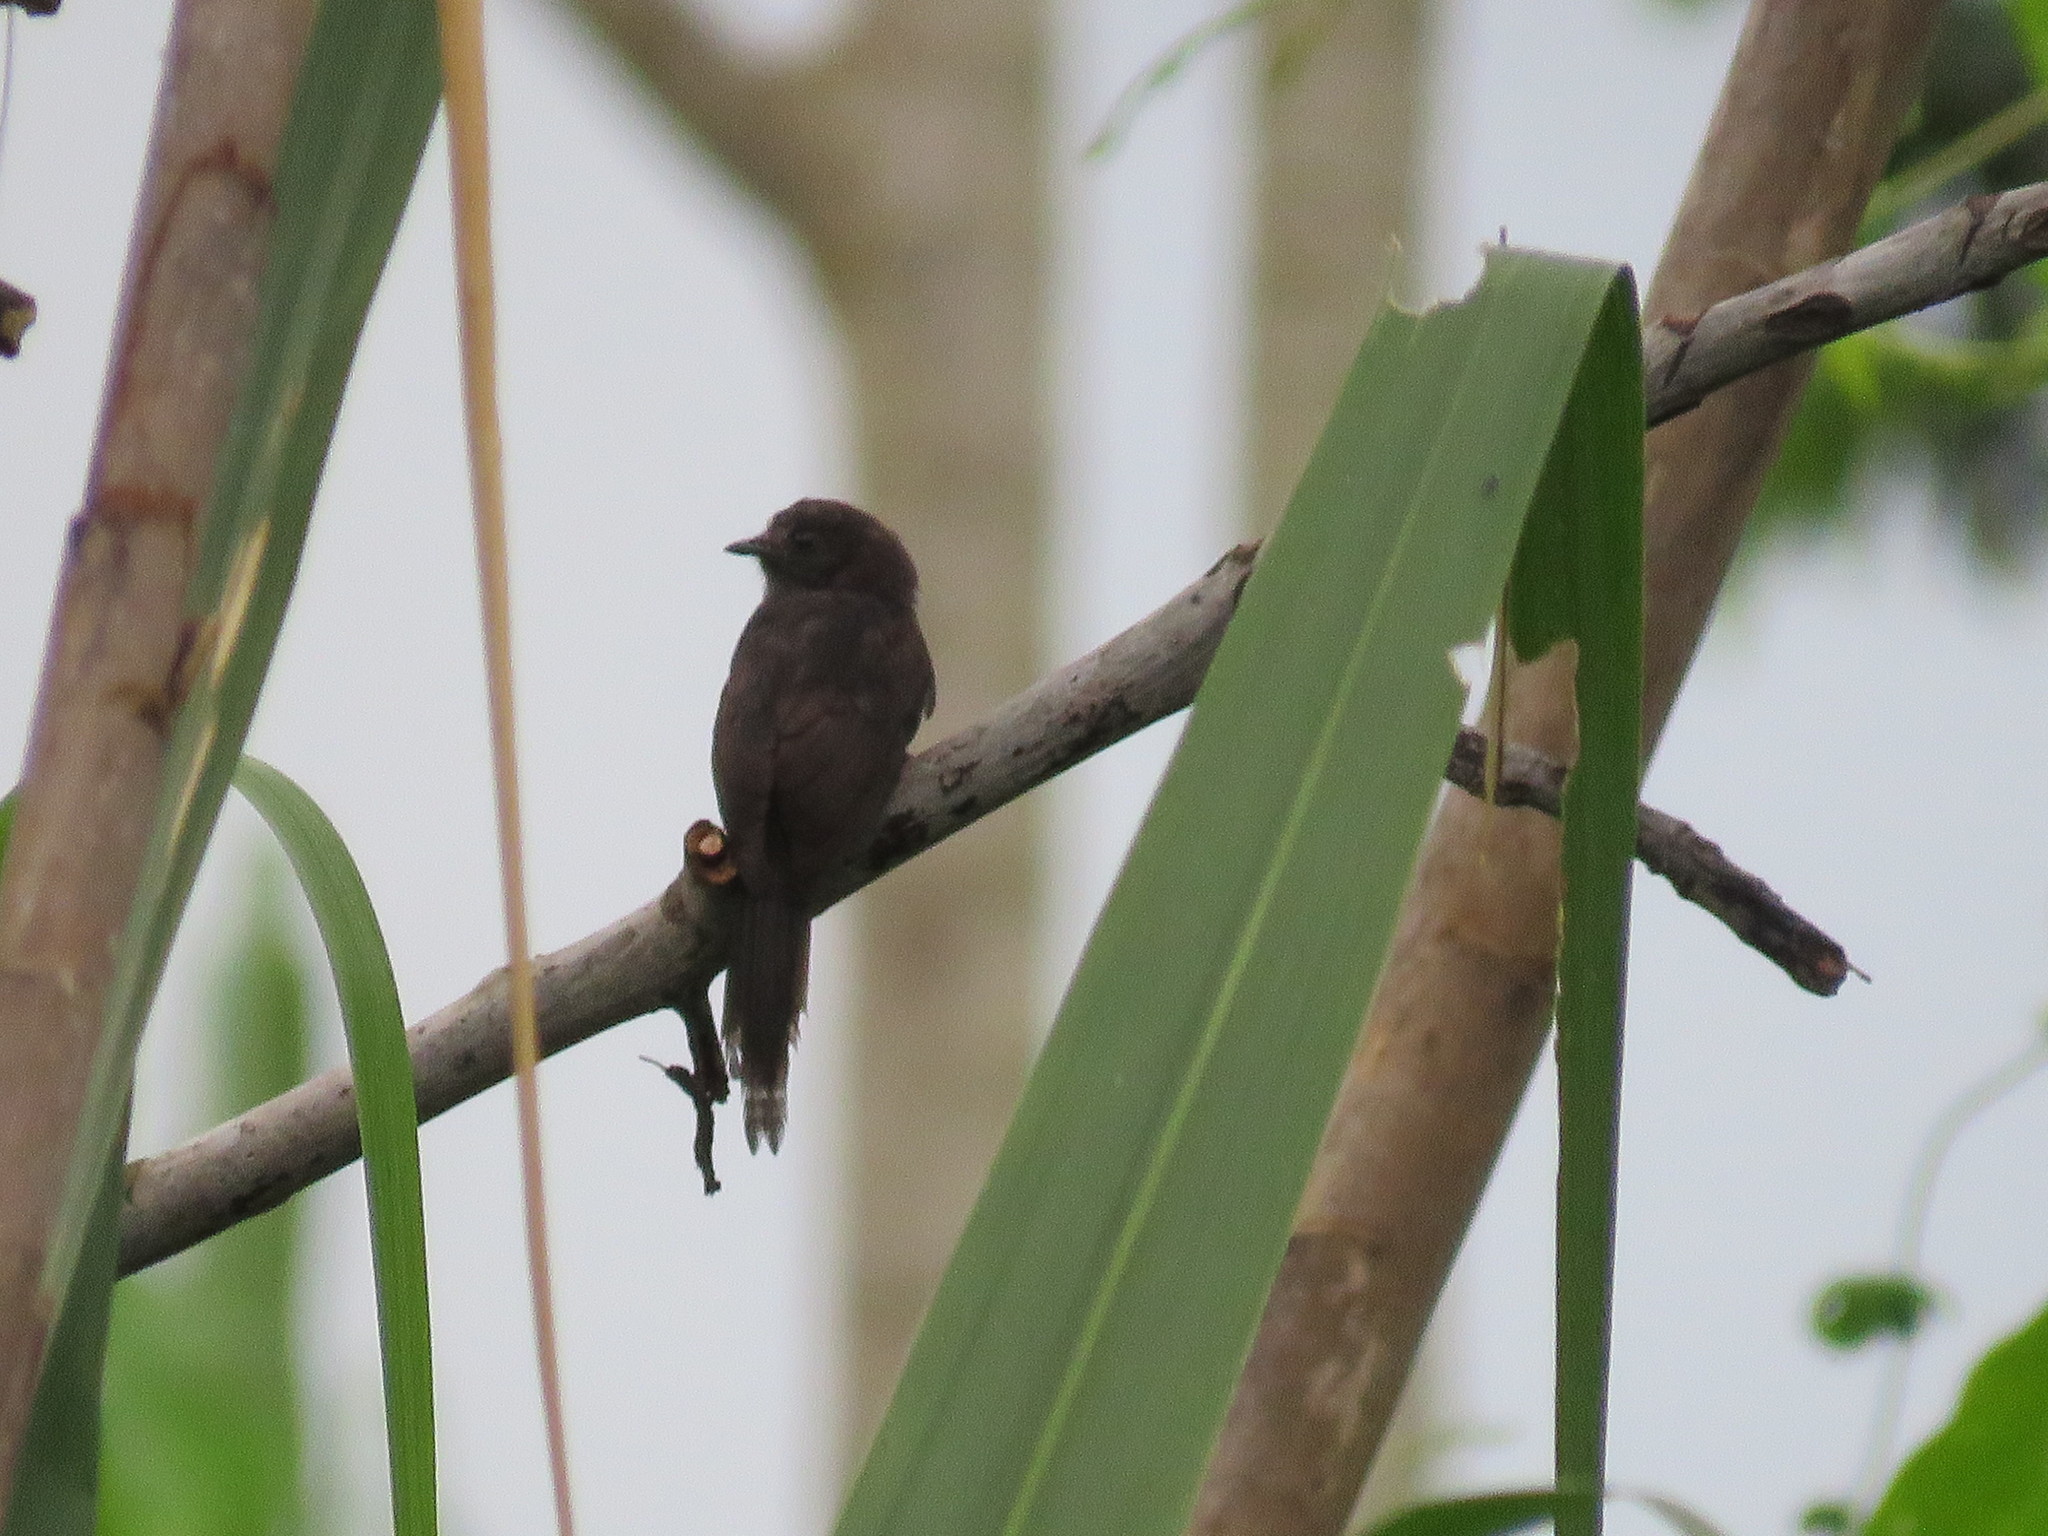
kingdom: Animalia
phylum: Chordata
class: Aves
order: Passeriformes
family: Tyrannidae
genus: Colonia
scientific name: Colonia colonus
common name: Long-tailed tyrant
